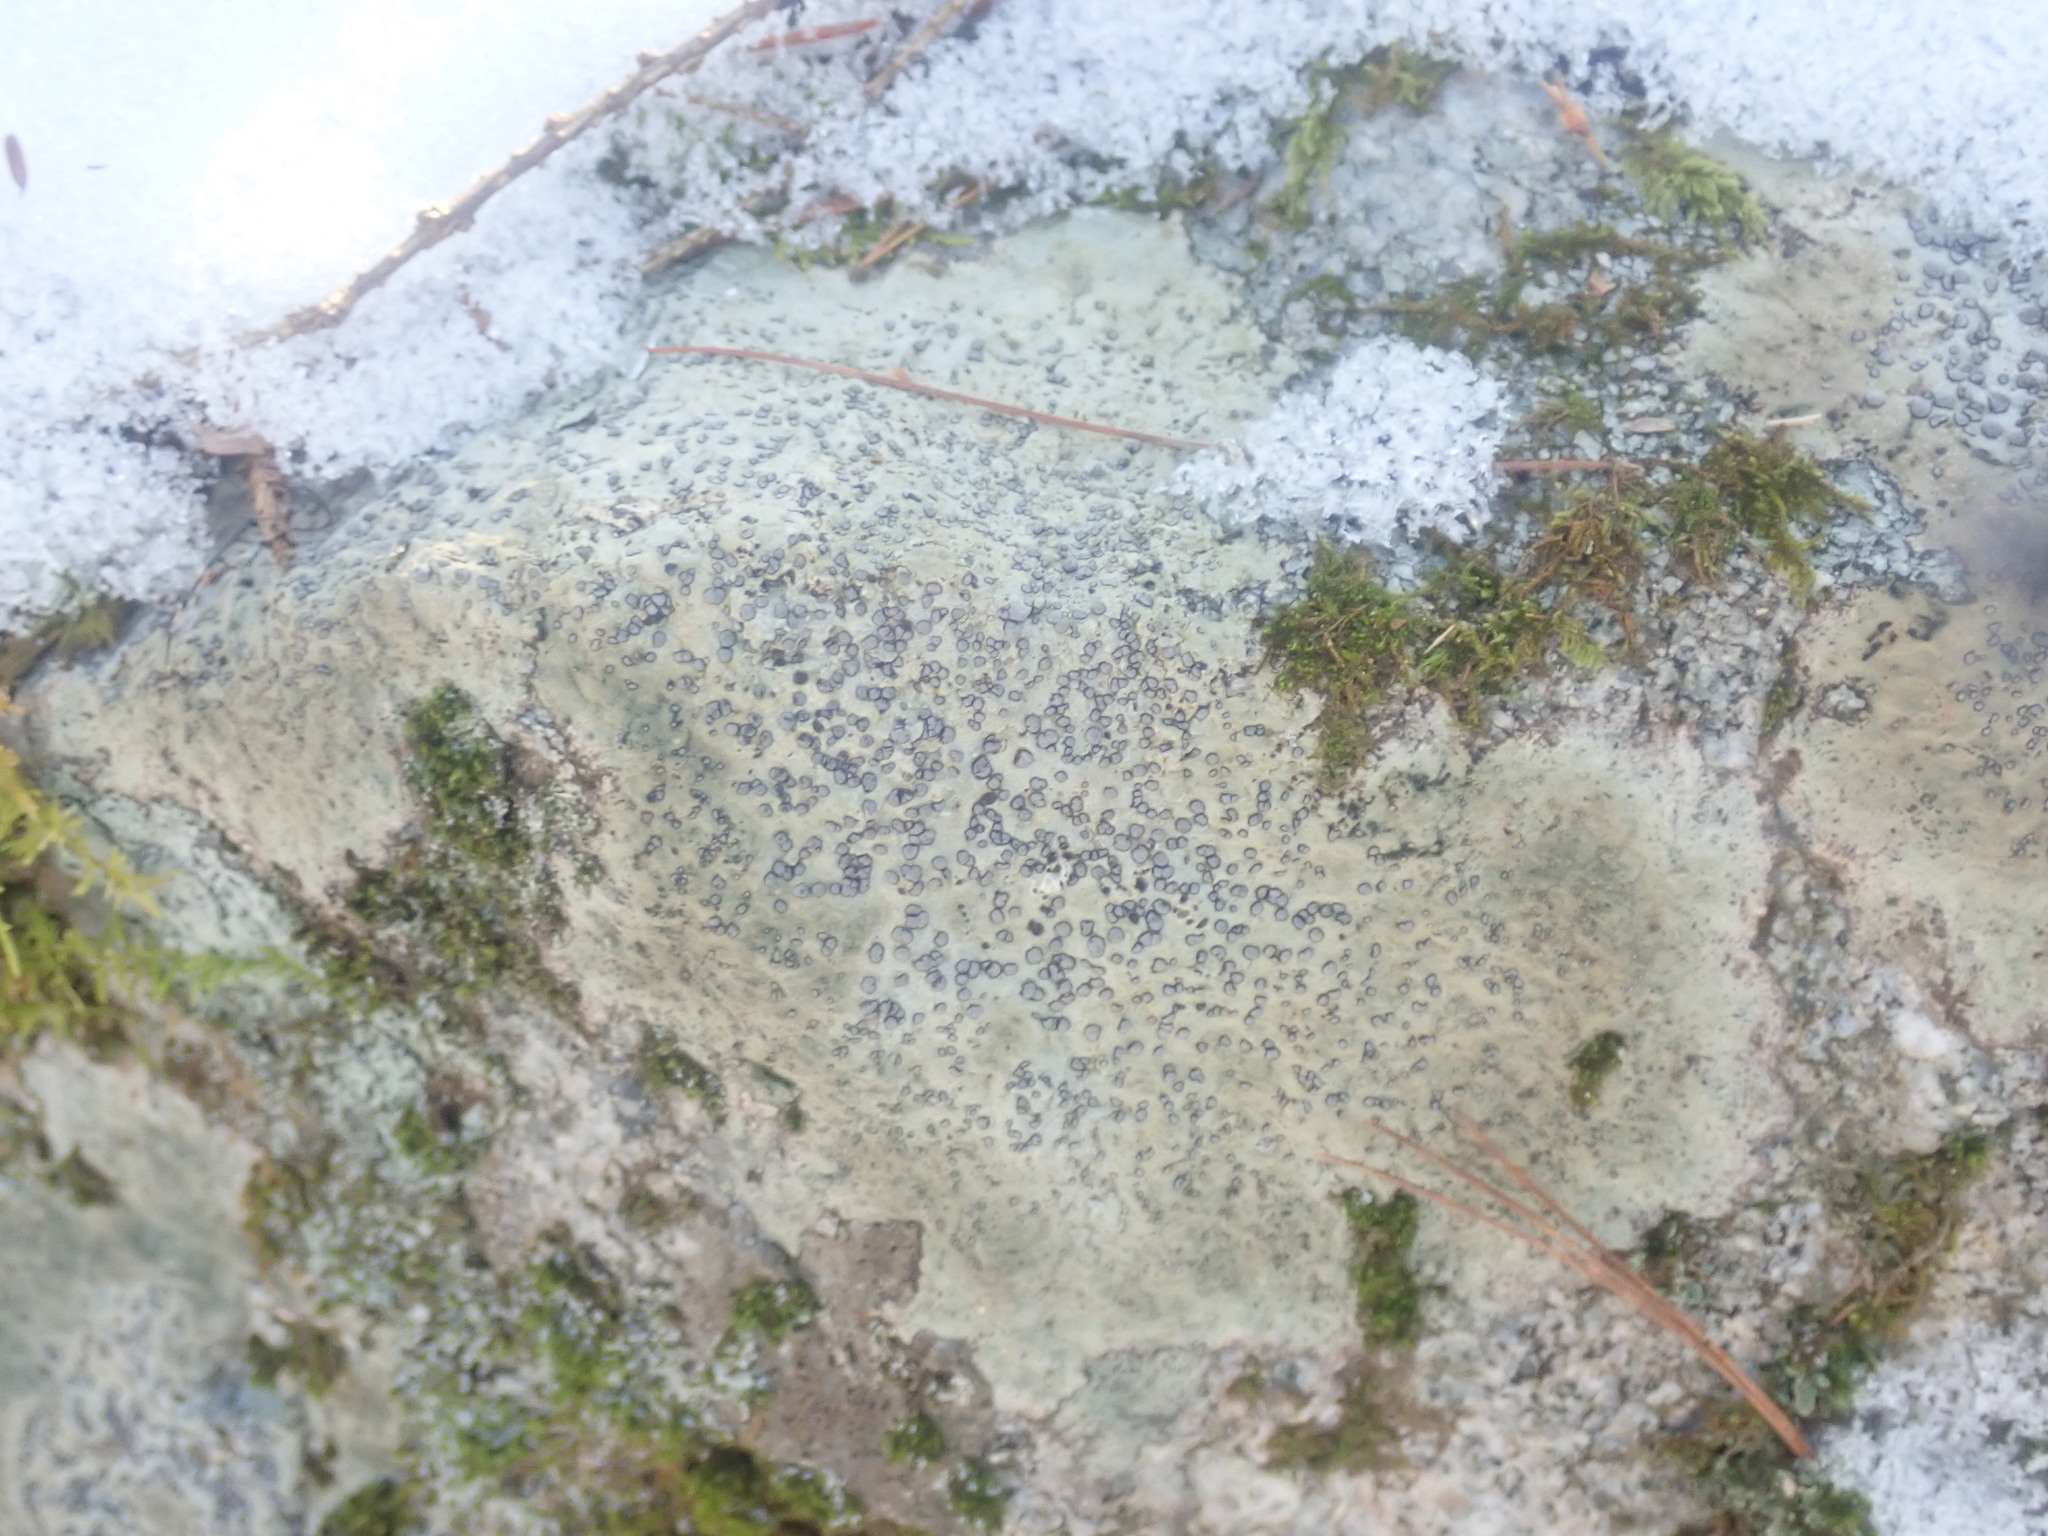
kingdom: Fungi
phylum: Ascomycota
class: Lecanoromycetes
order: Lecideales
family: Lecideaceae
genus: Porpidia
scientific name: Porpidia albocaerulescens
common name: Smokey-eyed boulder lichen
